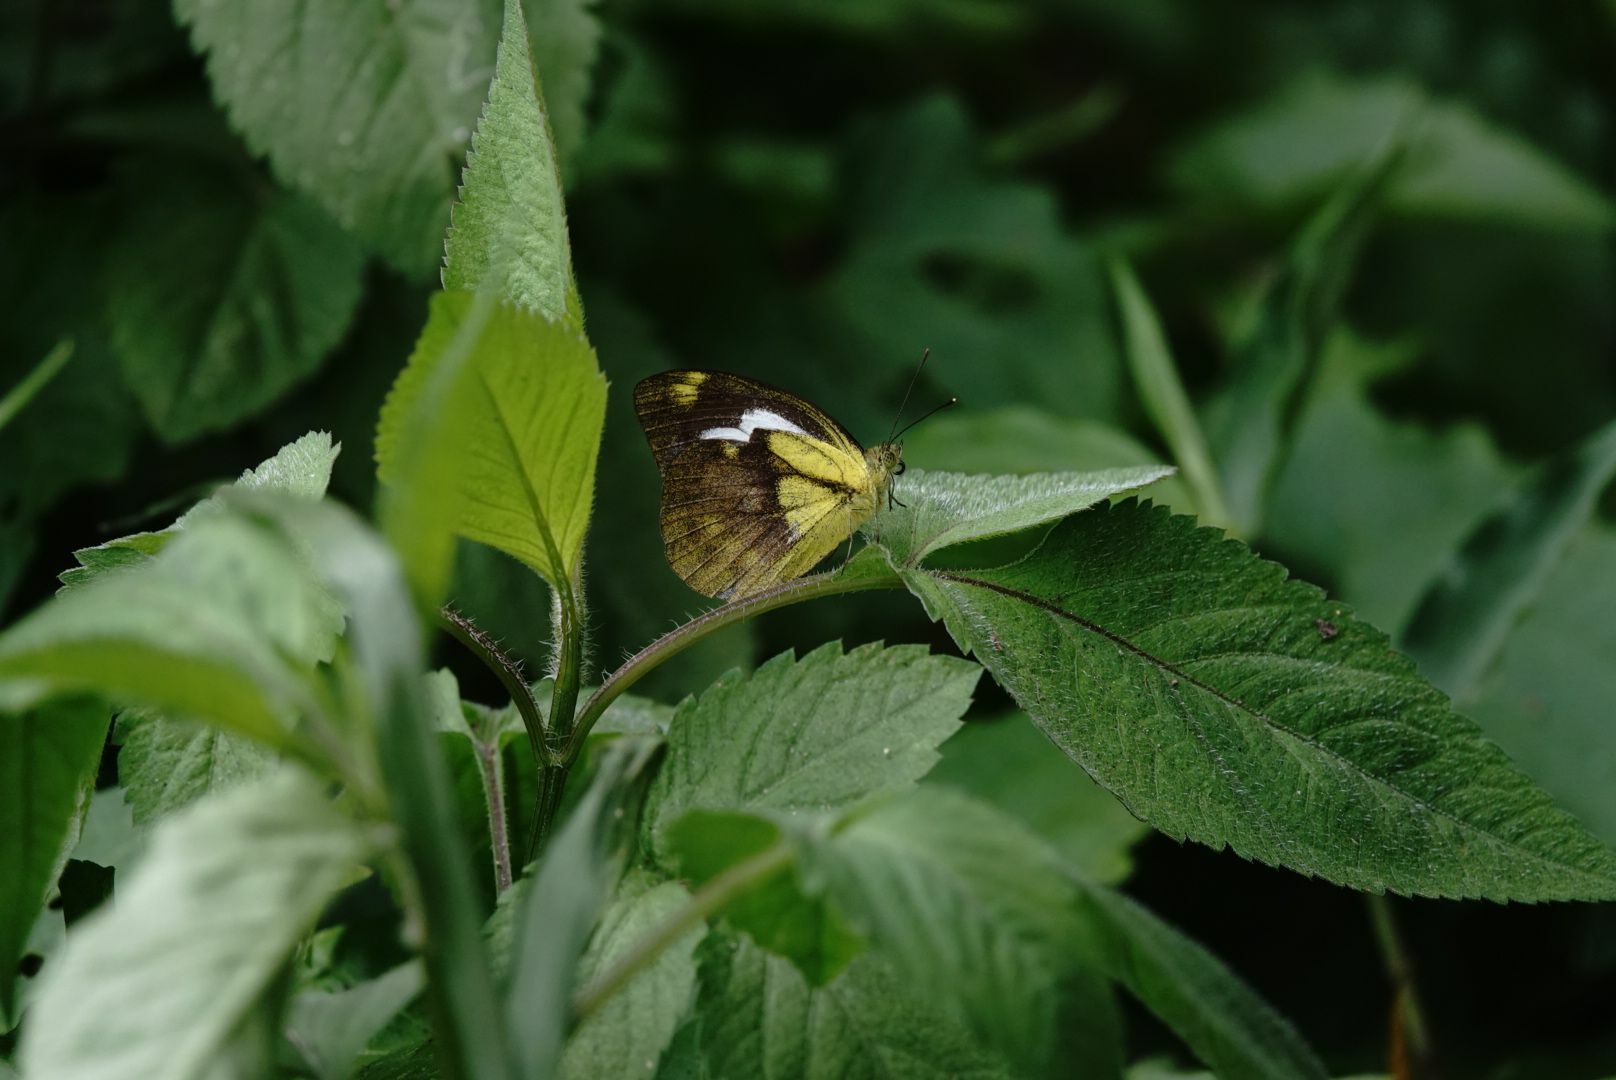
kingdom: Animalia
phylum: Arthropoda
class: Insecta
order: Lepidoptera
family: Pieridae
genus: Cepora
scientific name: Cepora nadina
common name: Lesser gull
